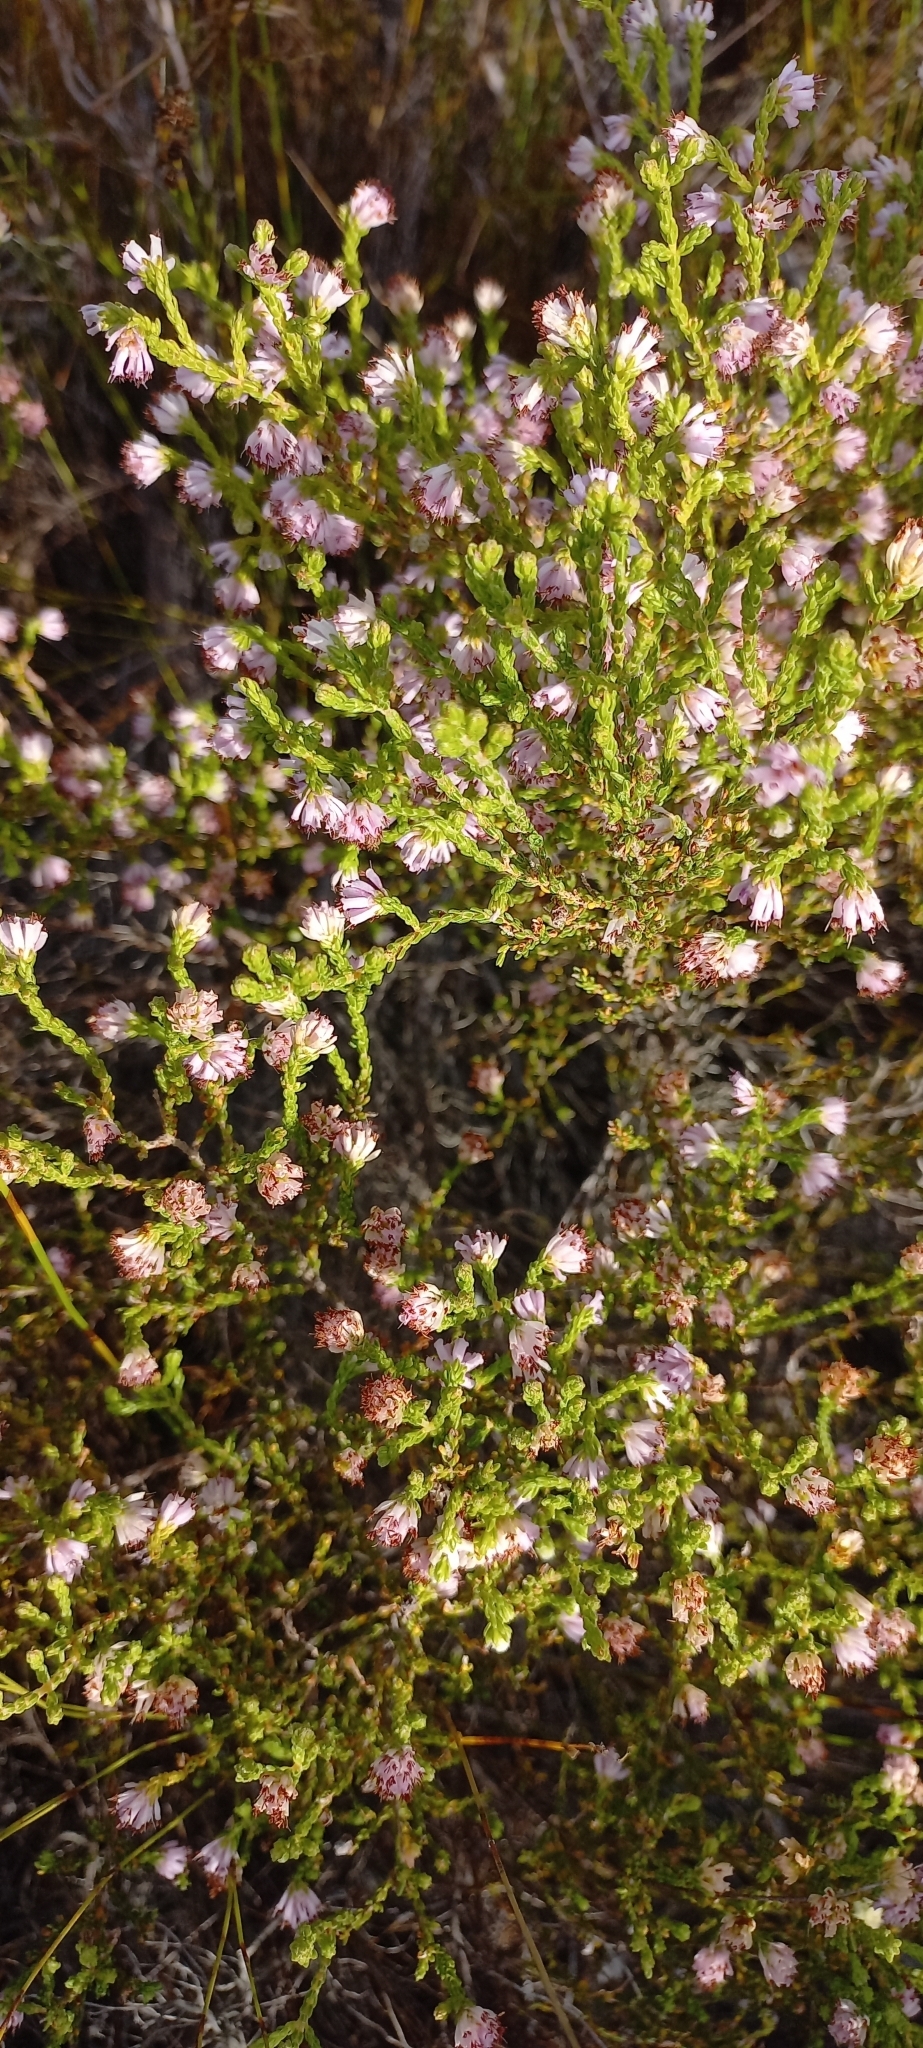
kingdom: Plantae
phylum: Tracheophyta
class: Magnoliopsida
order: Ericales
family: Ericaceae
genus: Erica
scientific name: Erica ericoides
